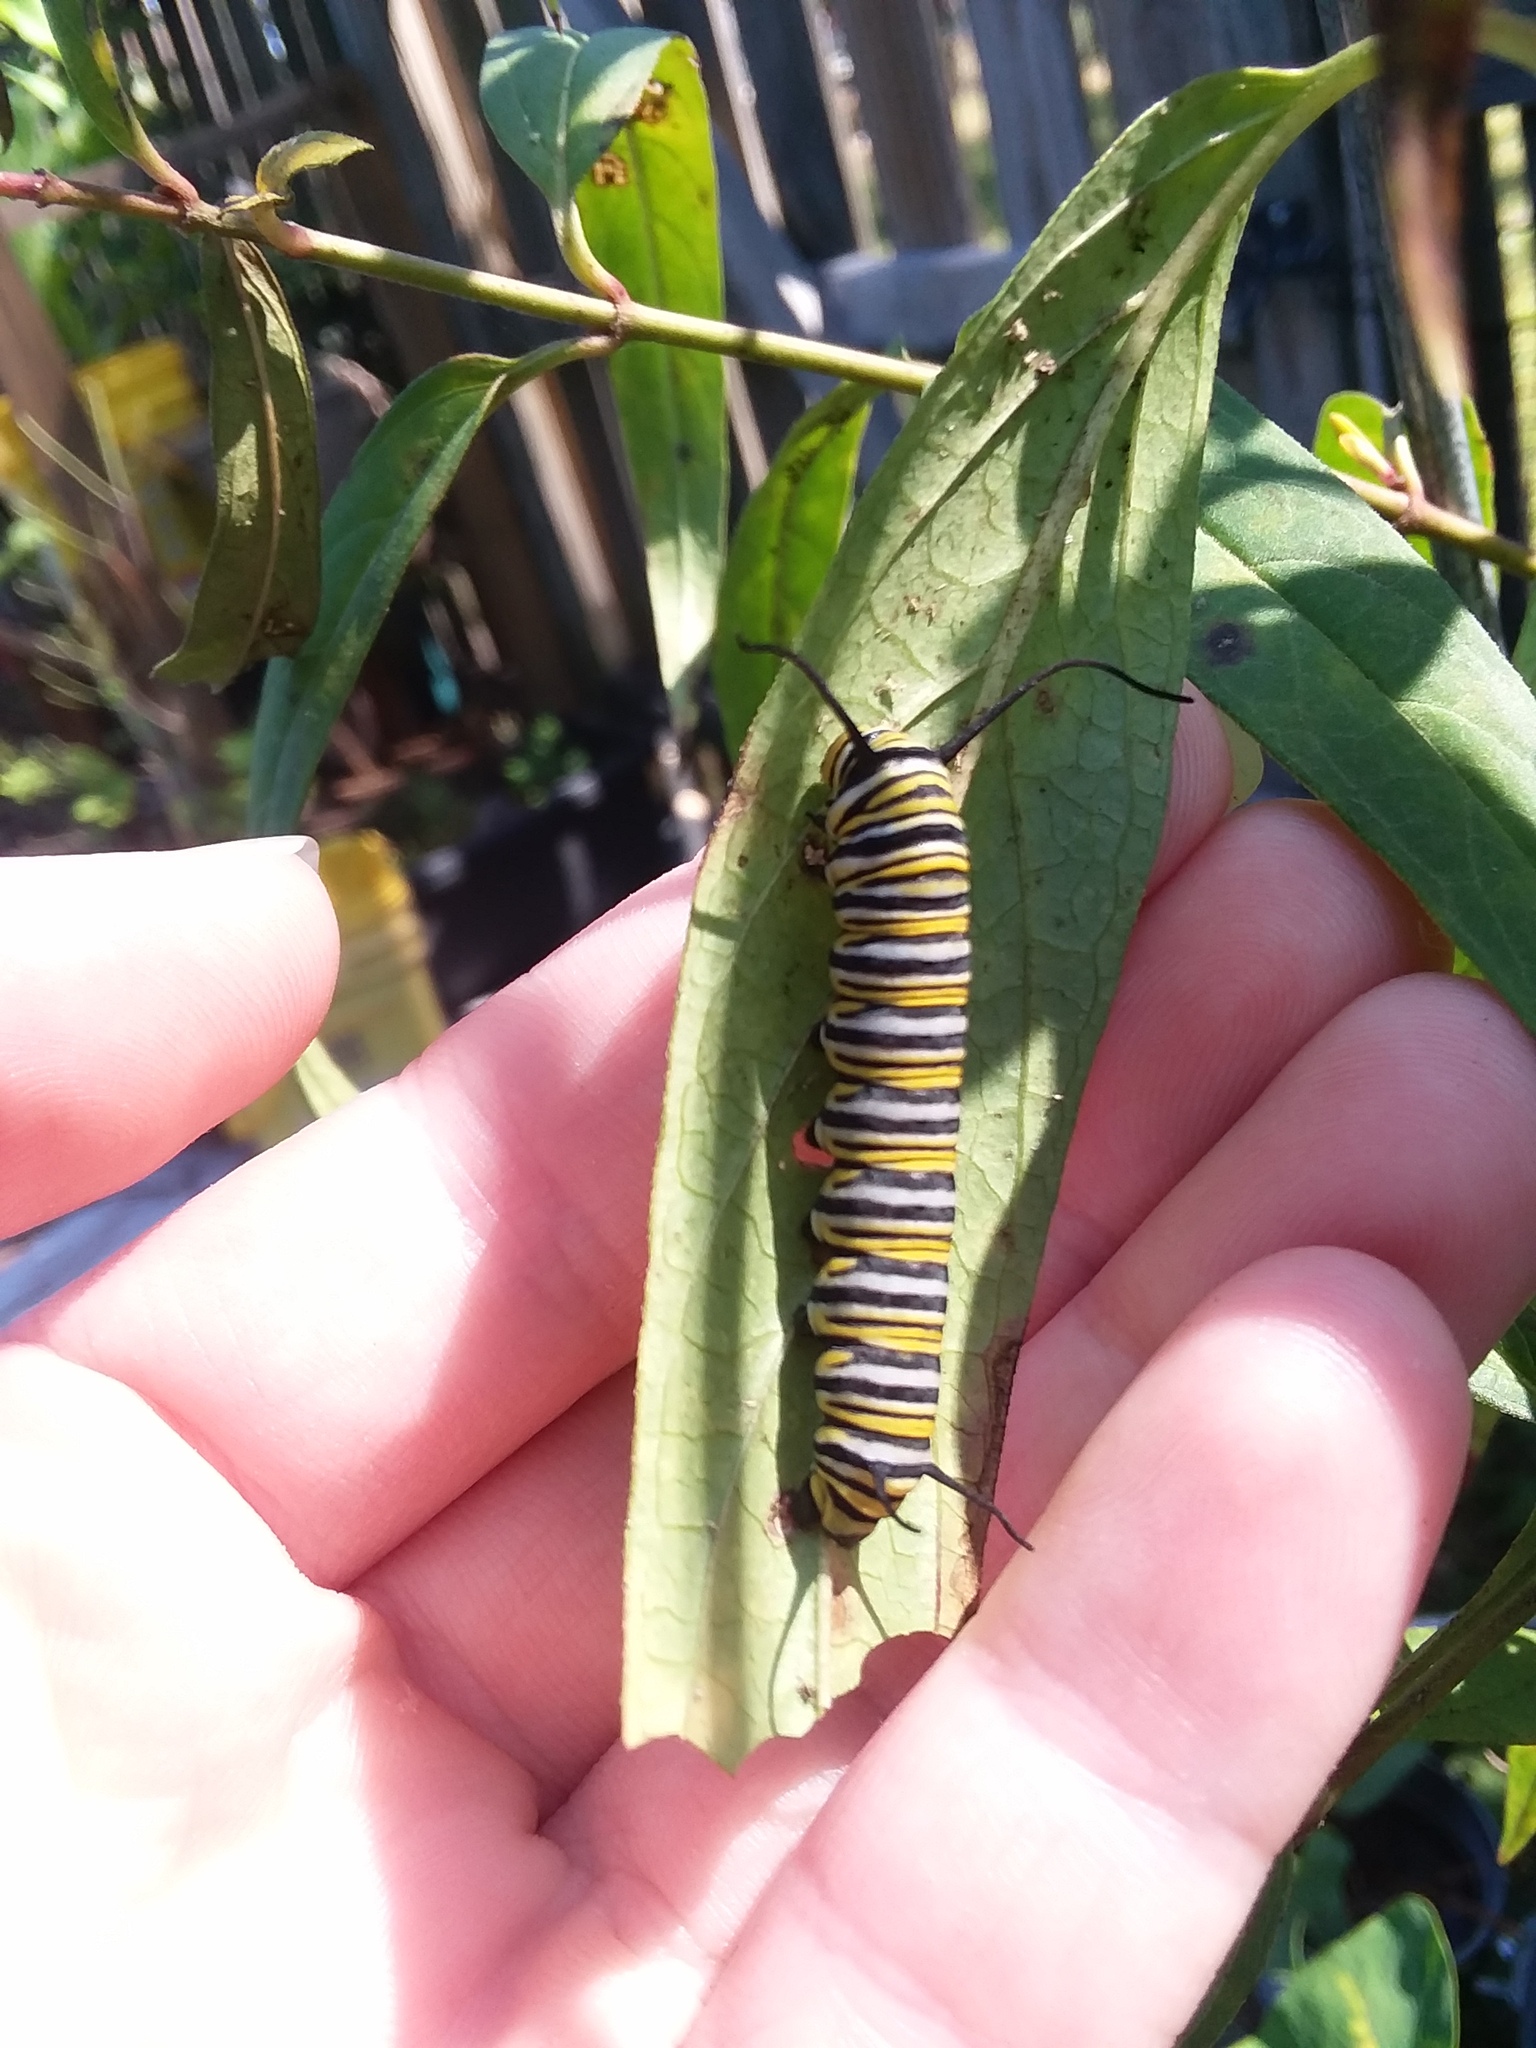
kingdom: Animalia
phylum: Arthropoda
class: Insecta
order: Lepidoptera
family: Nymphalidae
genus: Danaus
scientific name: Danaus plexippus
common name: Monarch
